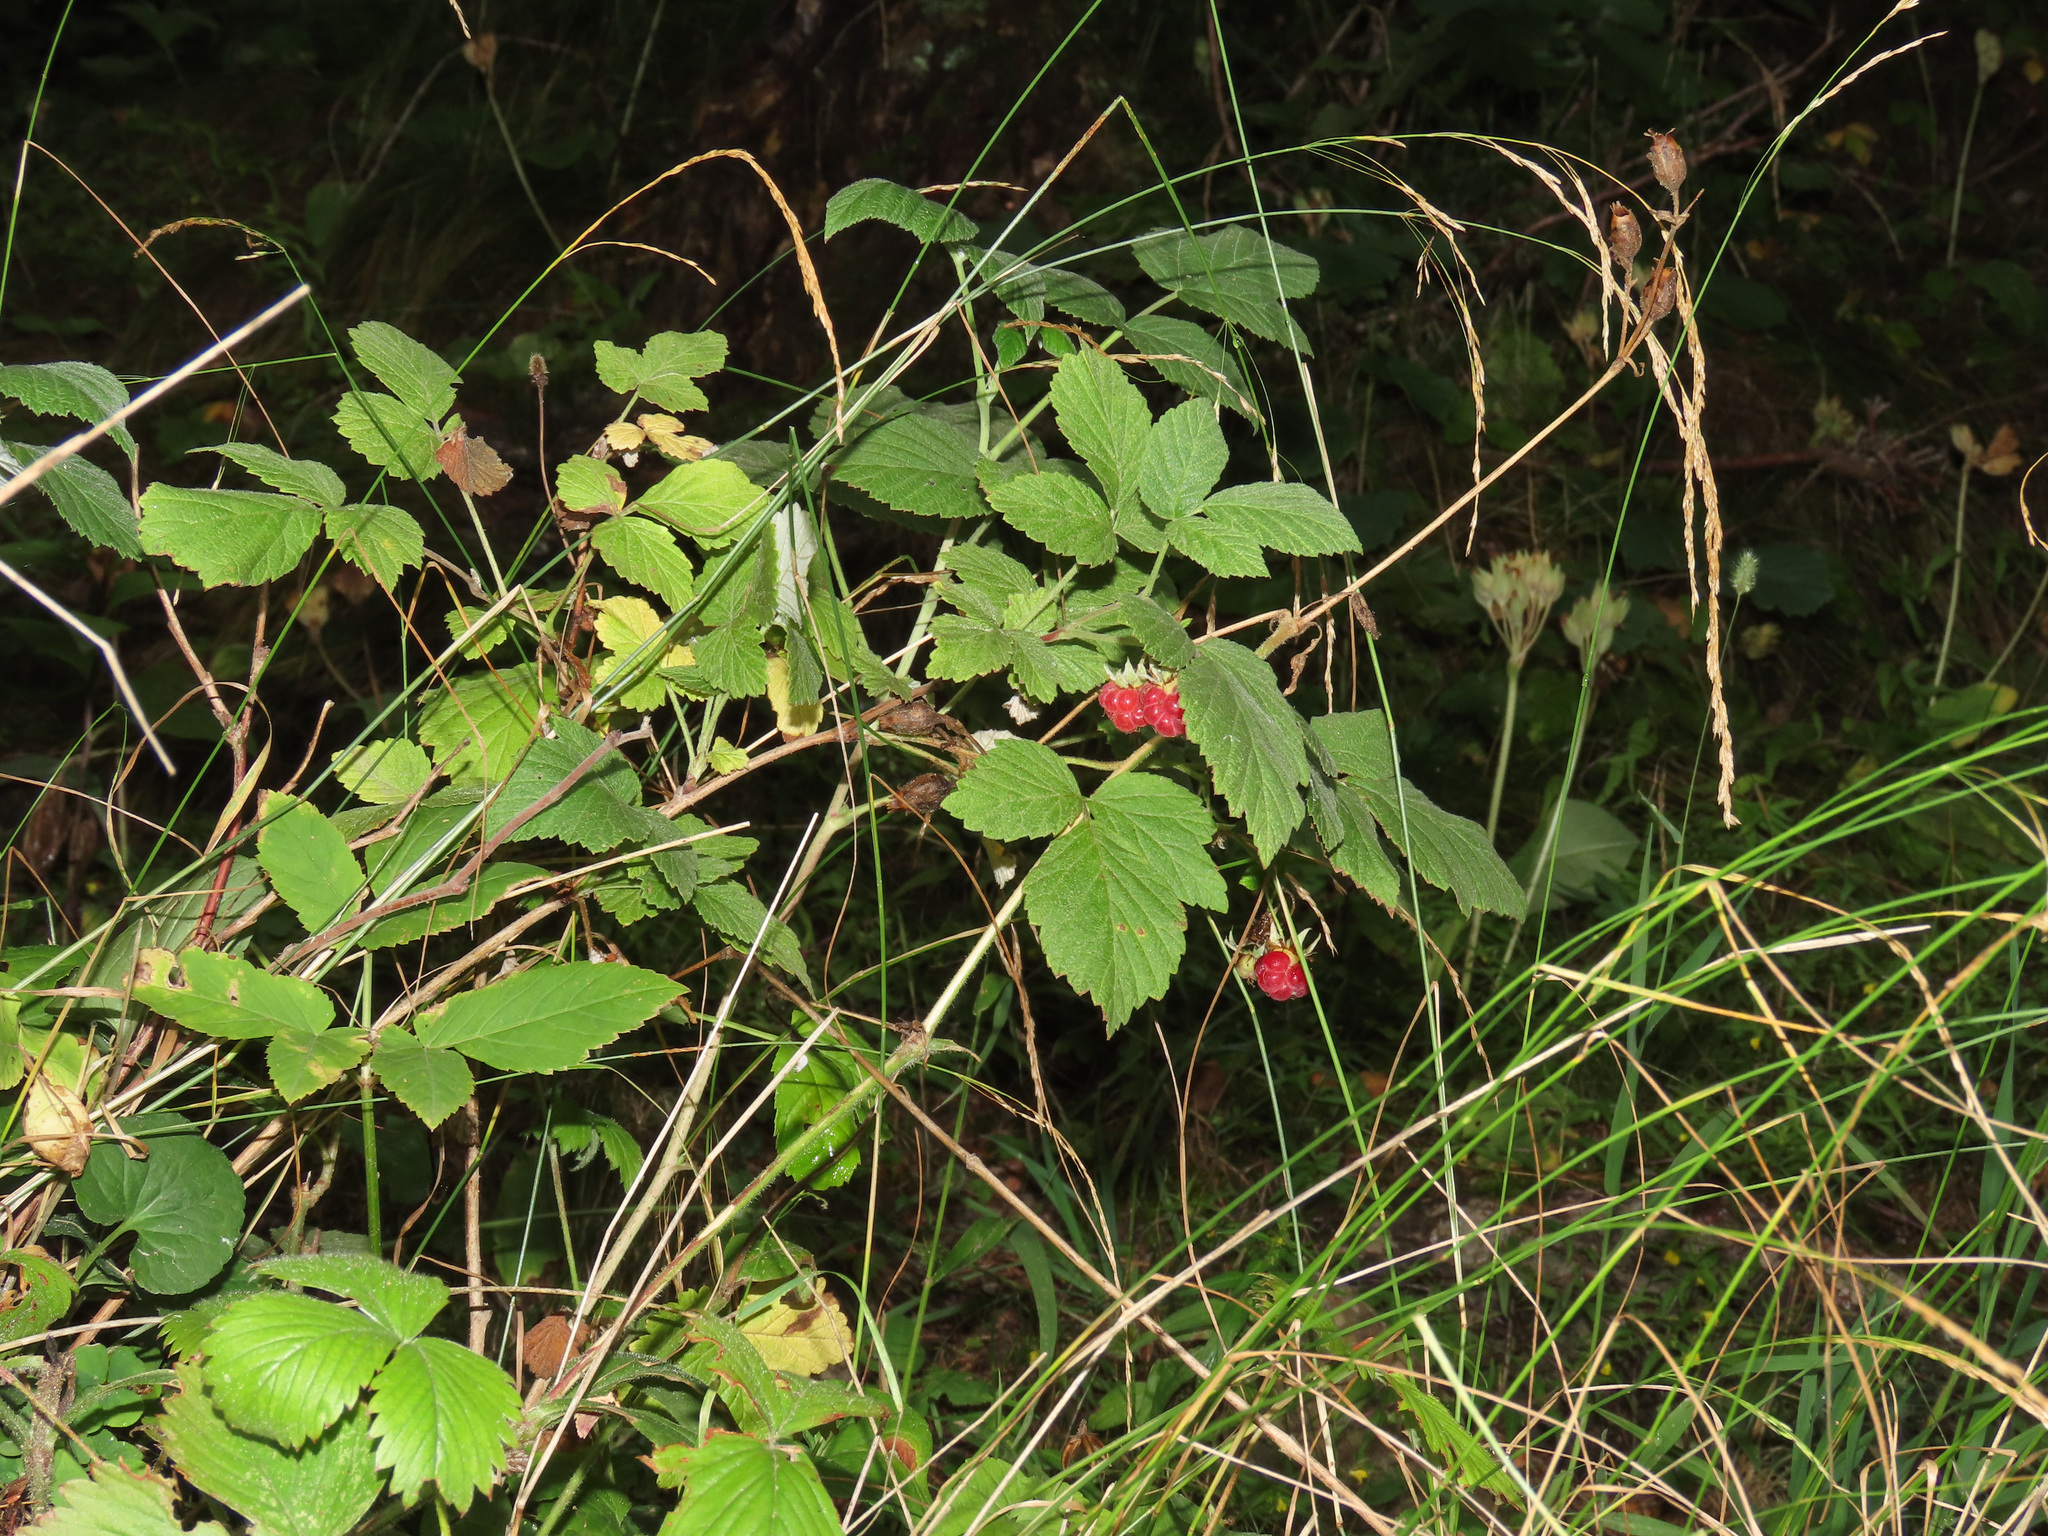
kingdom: Plantae
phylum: Tracheophyta
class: Magnoliopsida
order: Rosales
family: Rosaceae
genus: Rubus
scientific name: Rubus idaeus
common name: Raspberry
